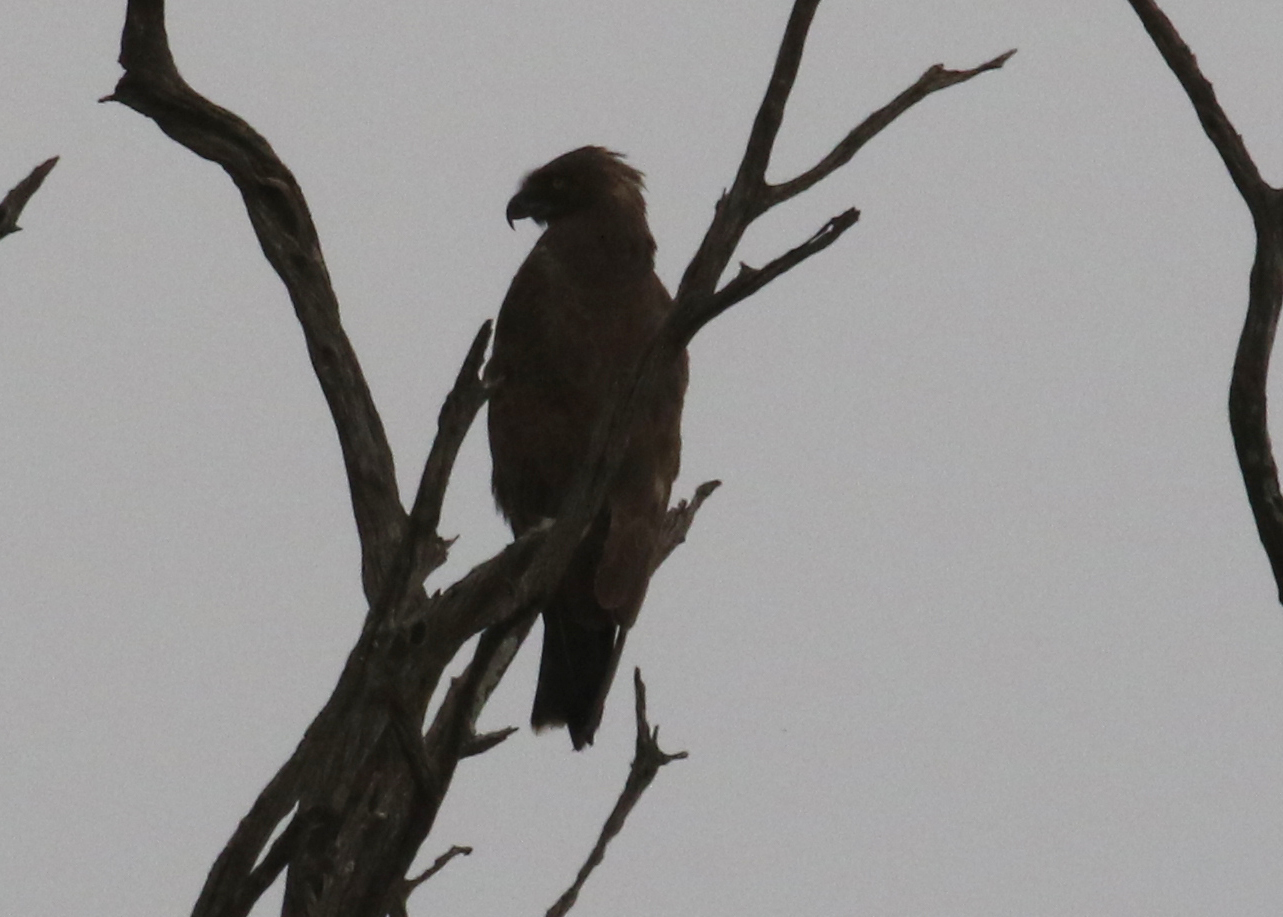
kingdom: Animalia
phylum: Chordata
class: Aves
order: Accipitriformes
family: Accipitridae
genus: Circaetus
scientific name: Circaetus cinereus
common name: Brown snake eagle
